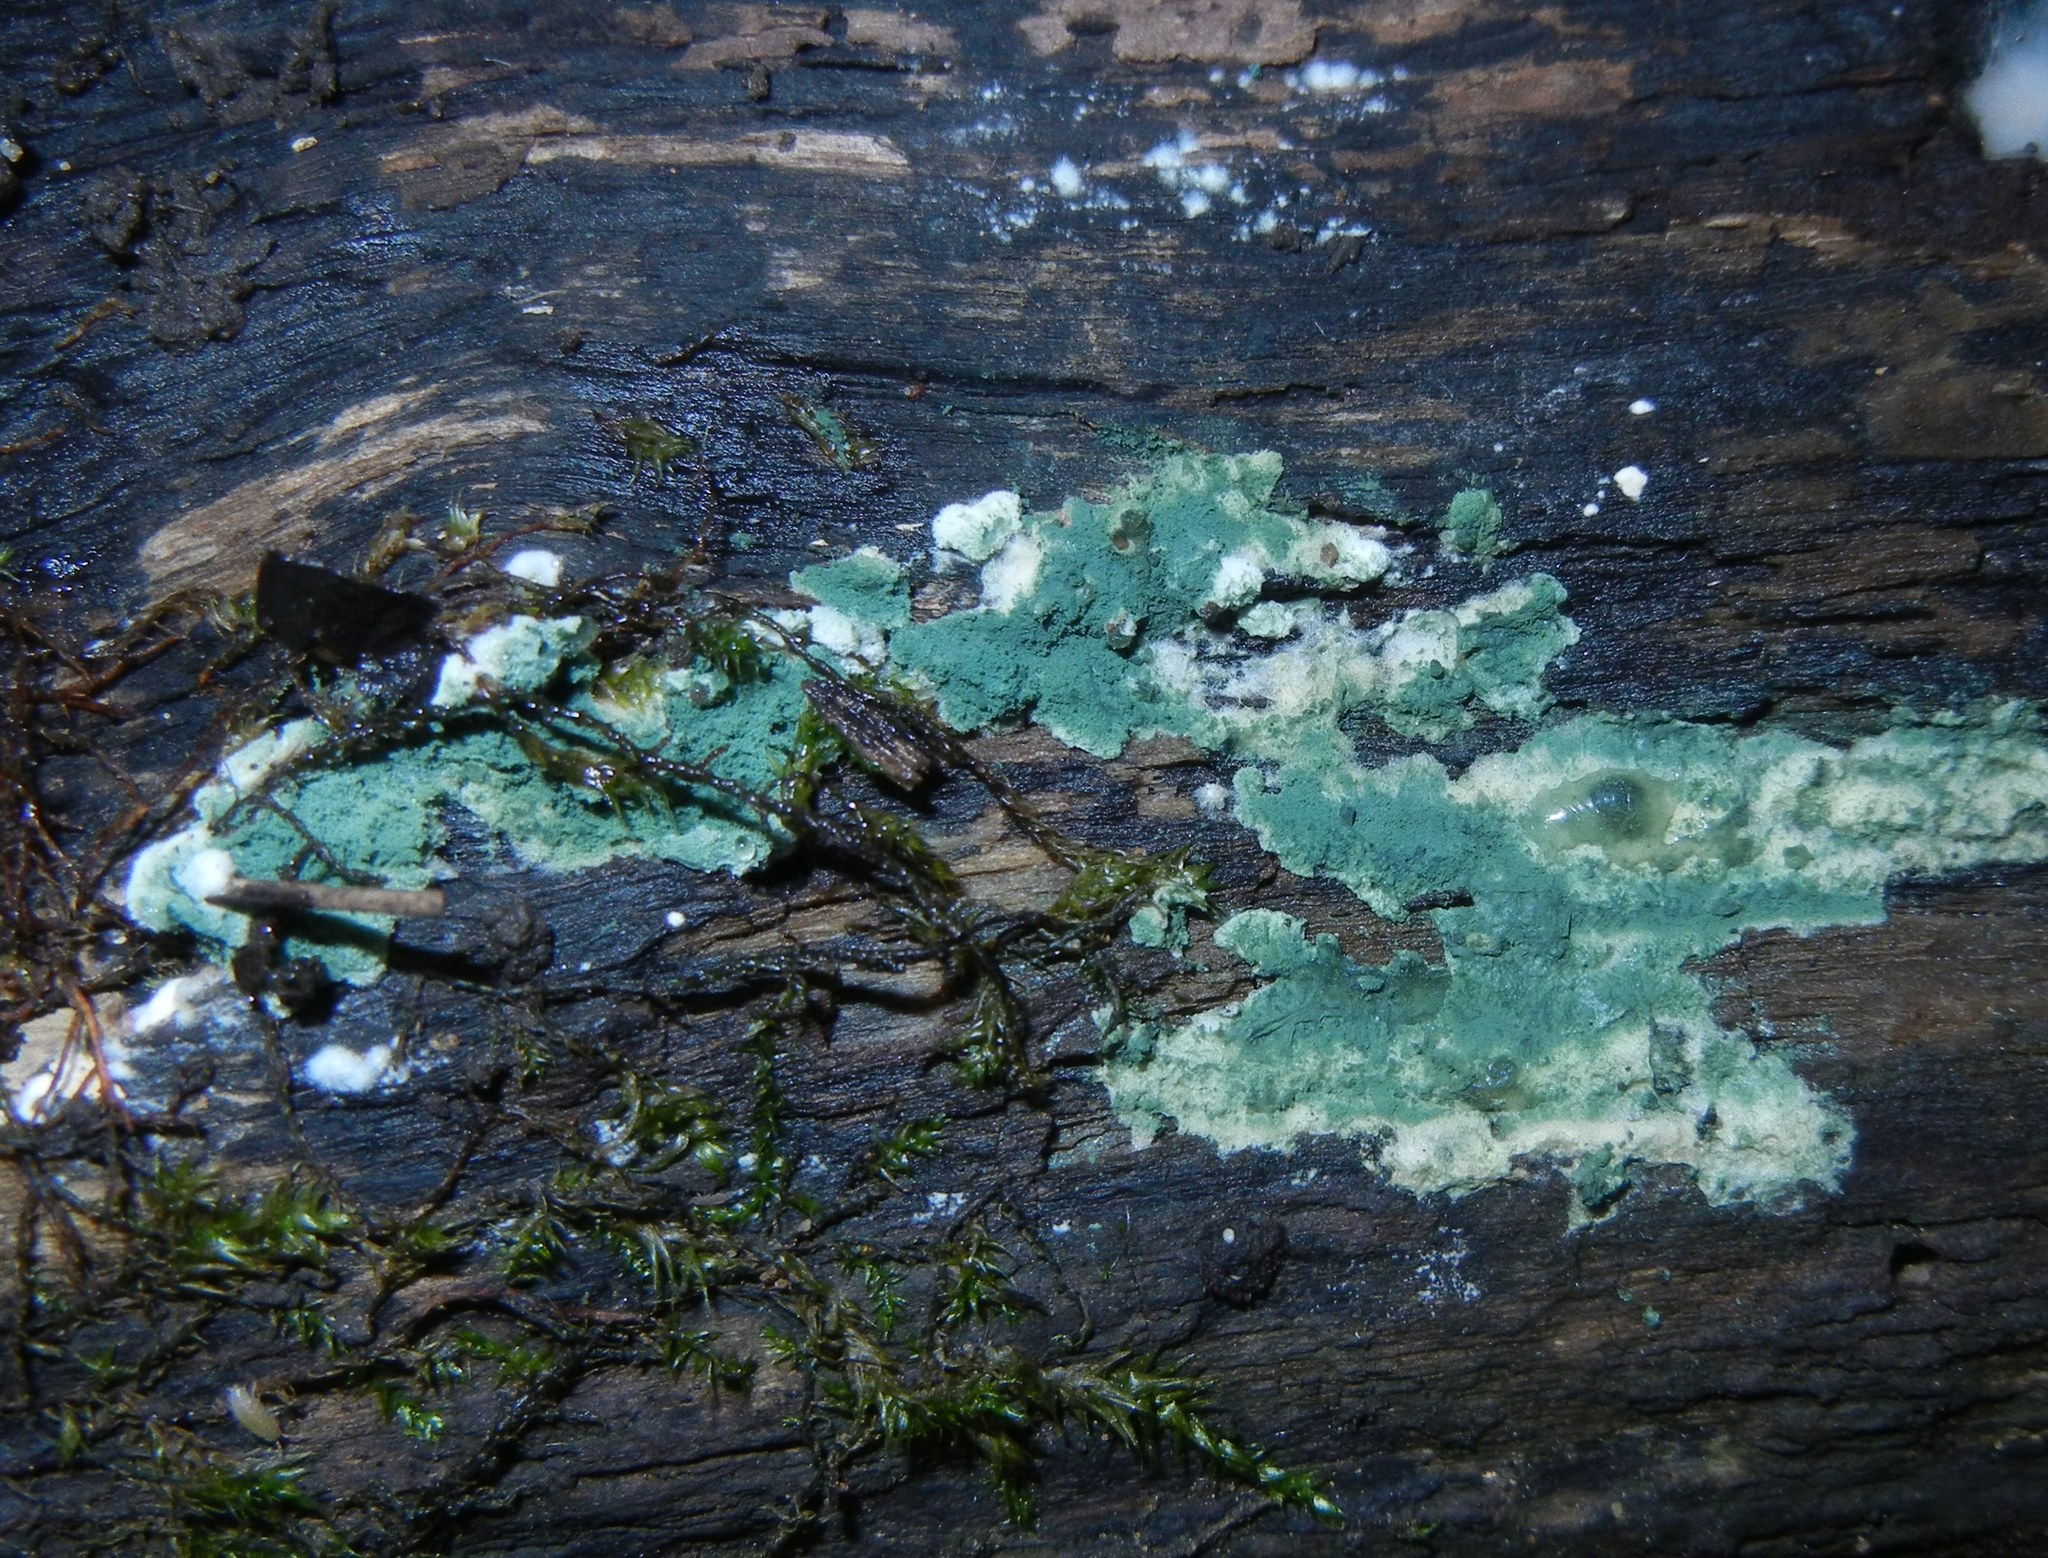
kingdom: Fungi
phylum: Ascomycota
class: Sordariomycetes
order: Hypocreales
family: Hypocreaceae
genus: Trichoderma
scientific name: Trichoderma viride
